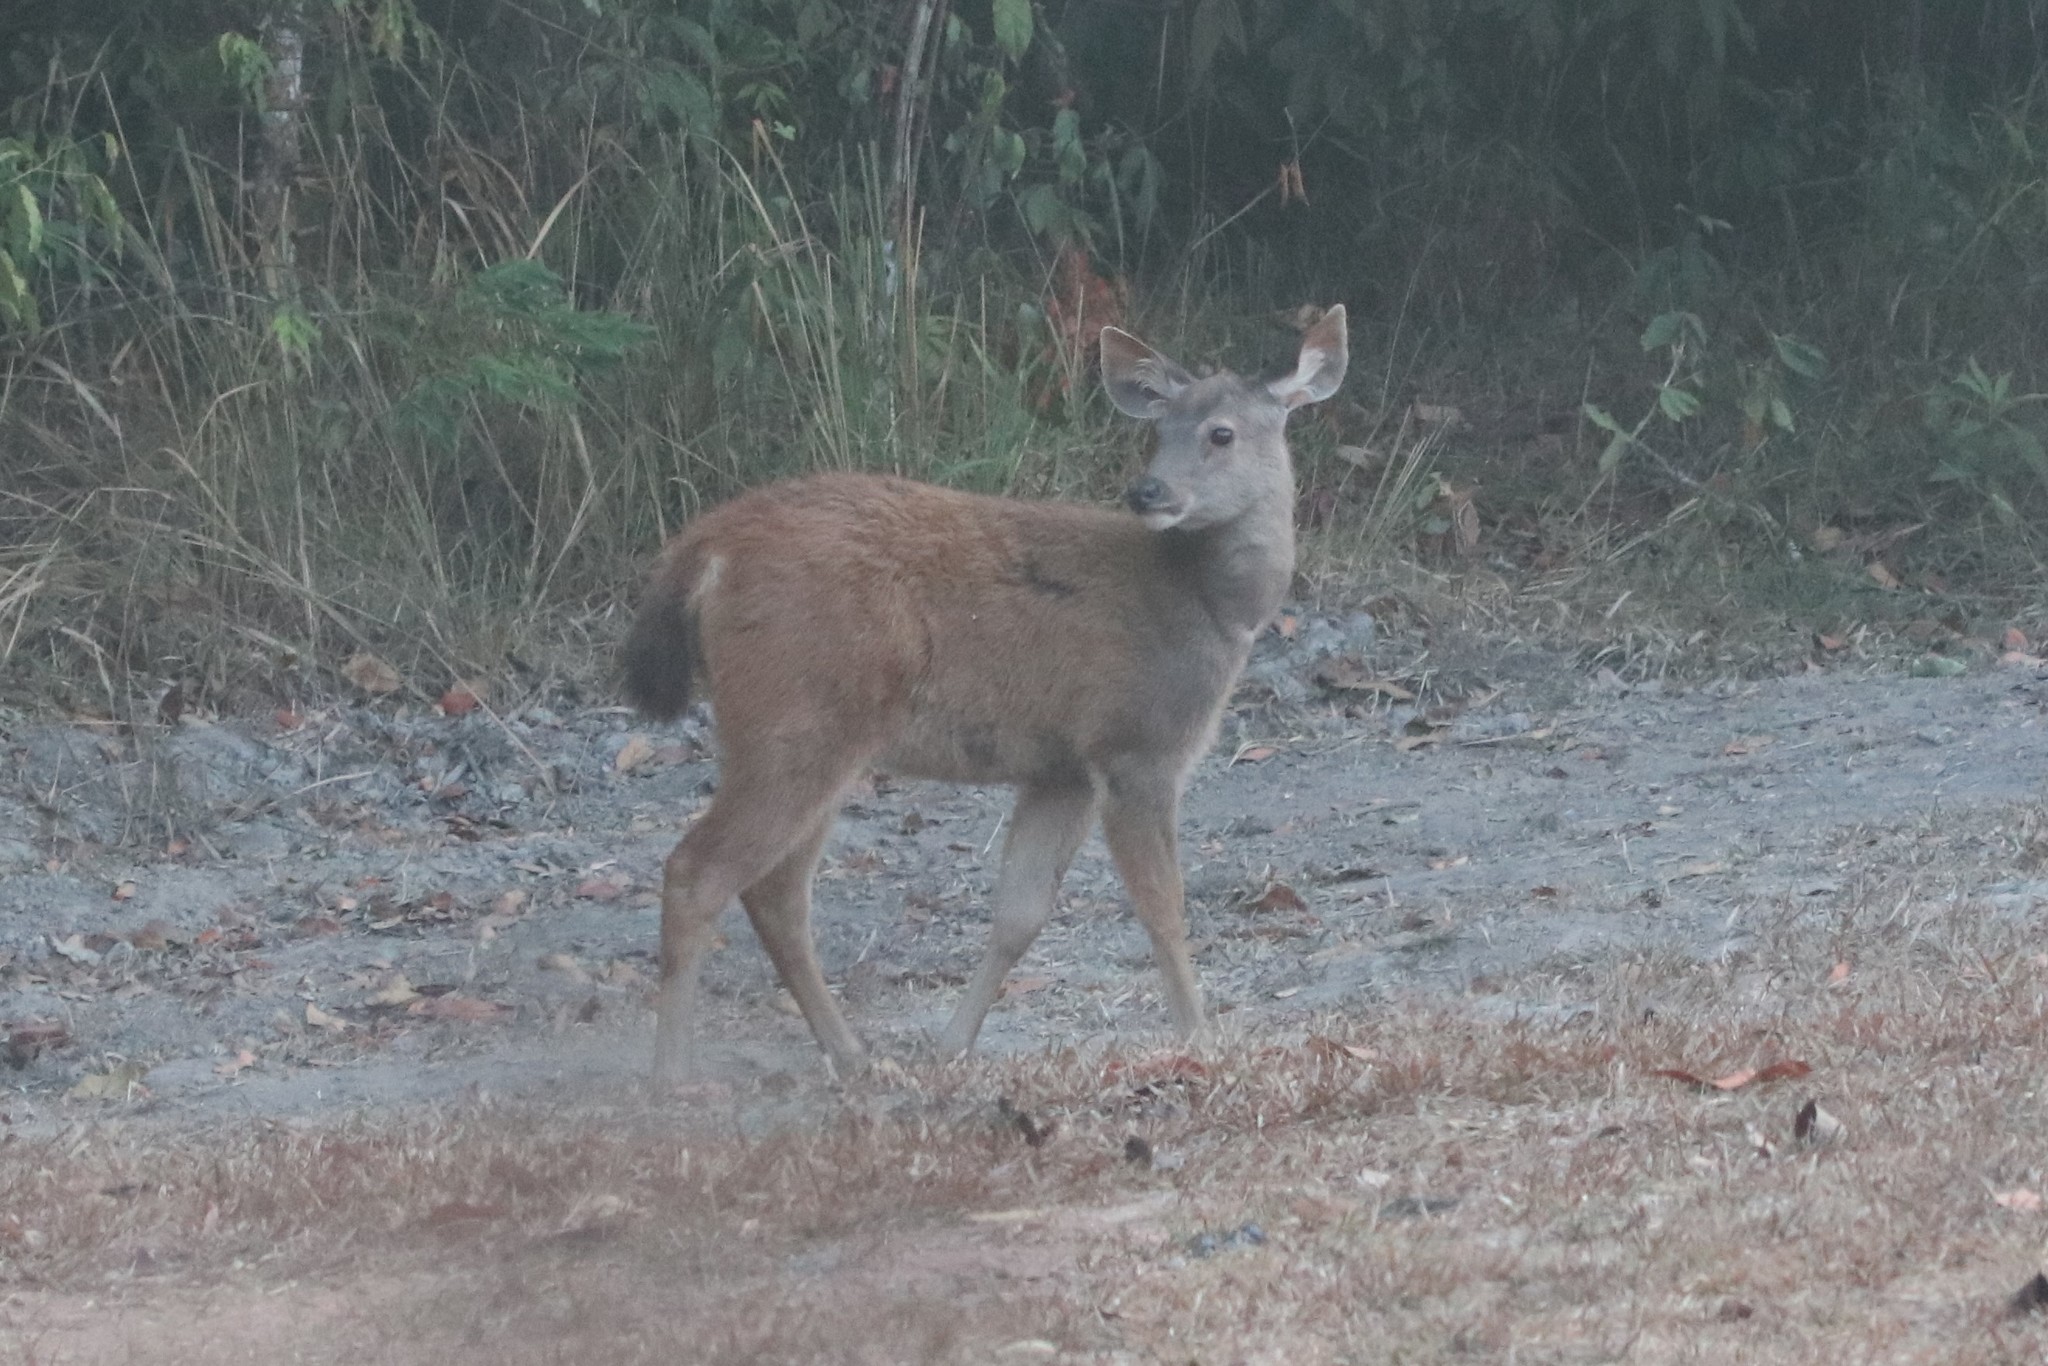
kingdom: Animalia
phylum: Chordata
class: Mammalia
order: Artiodactyla
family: Cervidae
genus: Rusa
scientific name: Rusa unicolor
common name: Sambar
